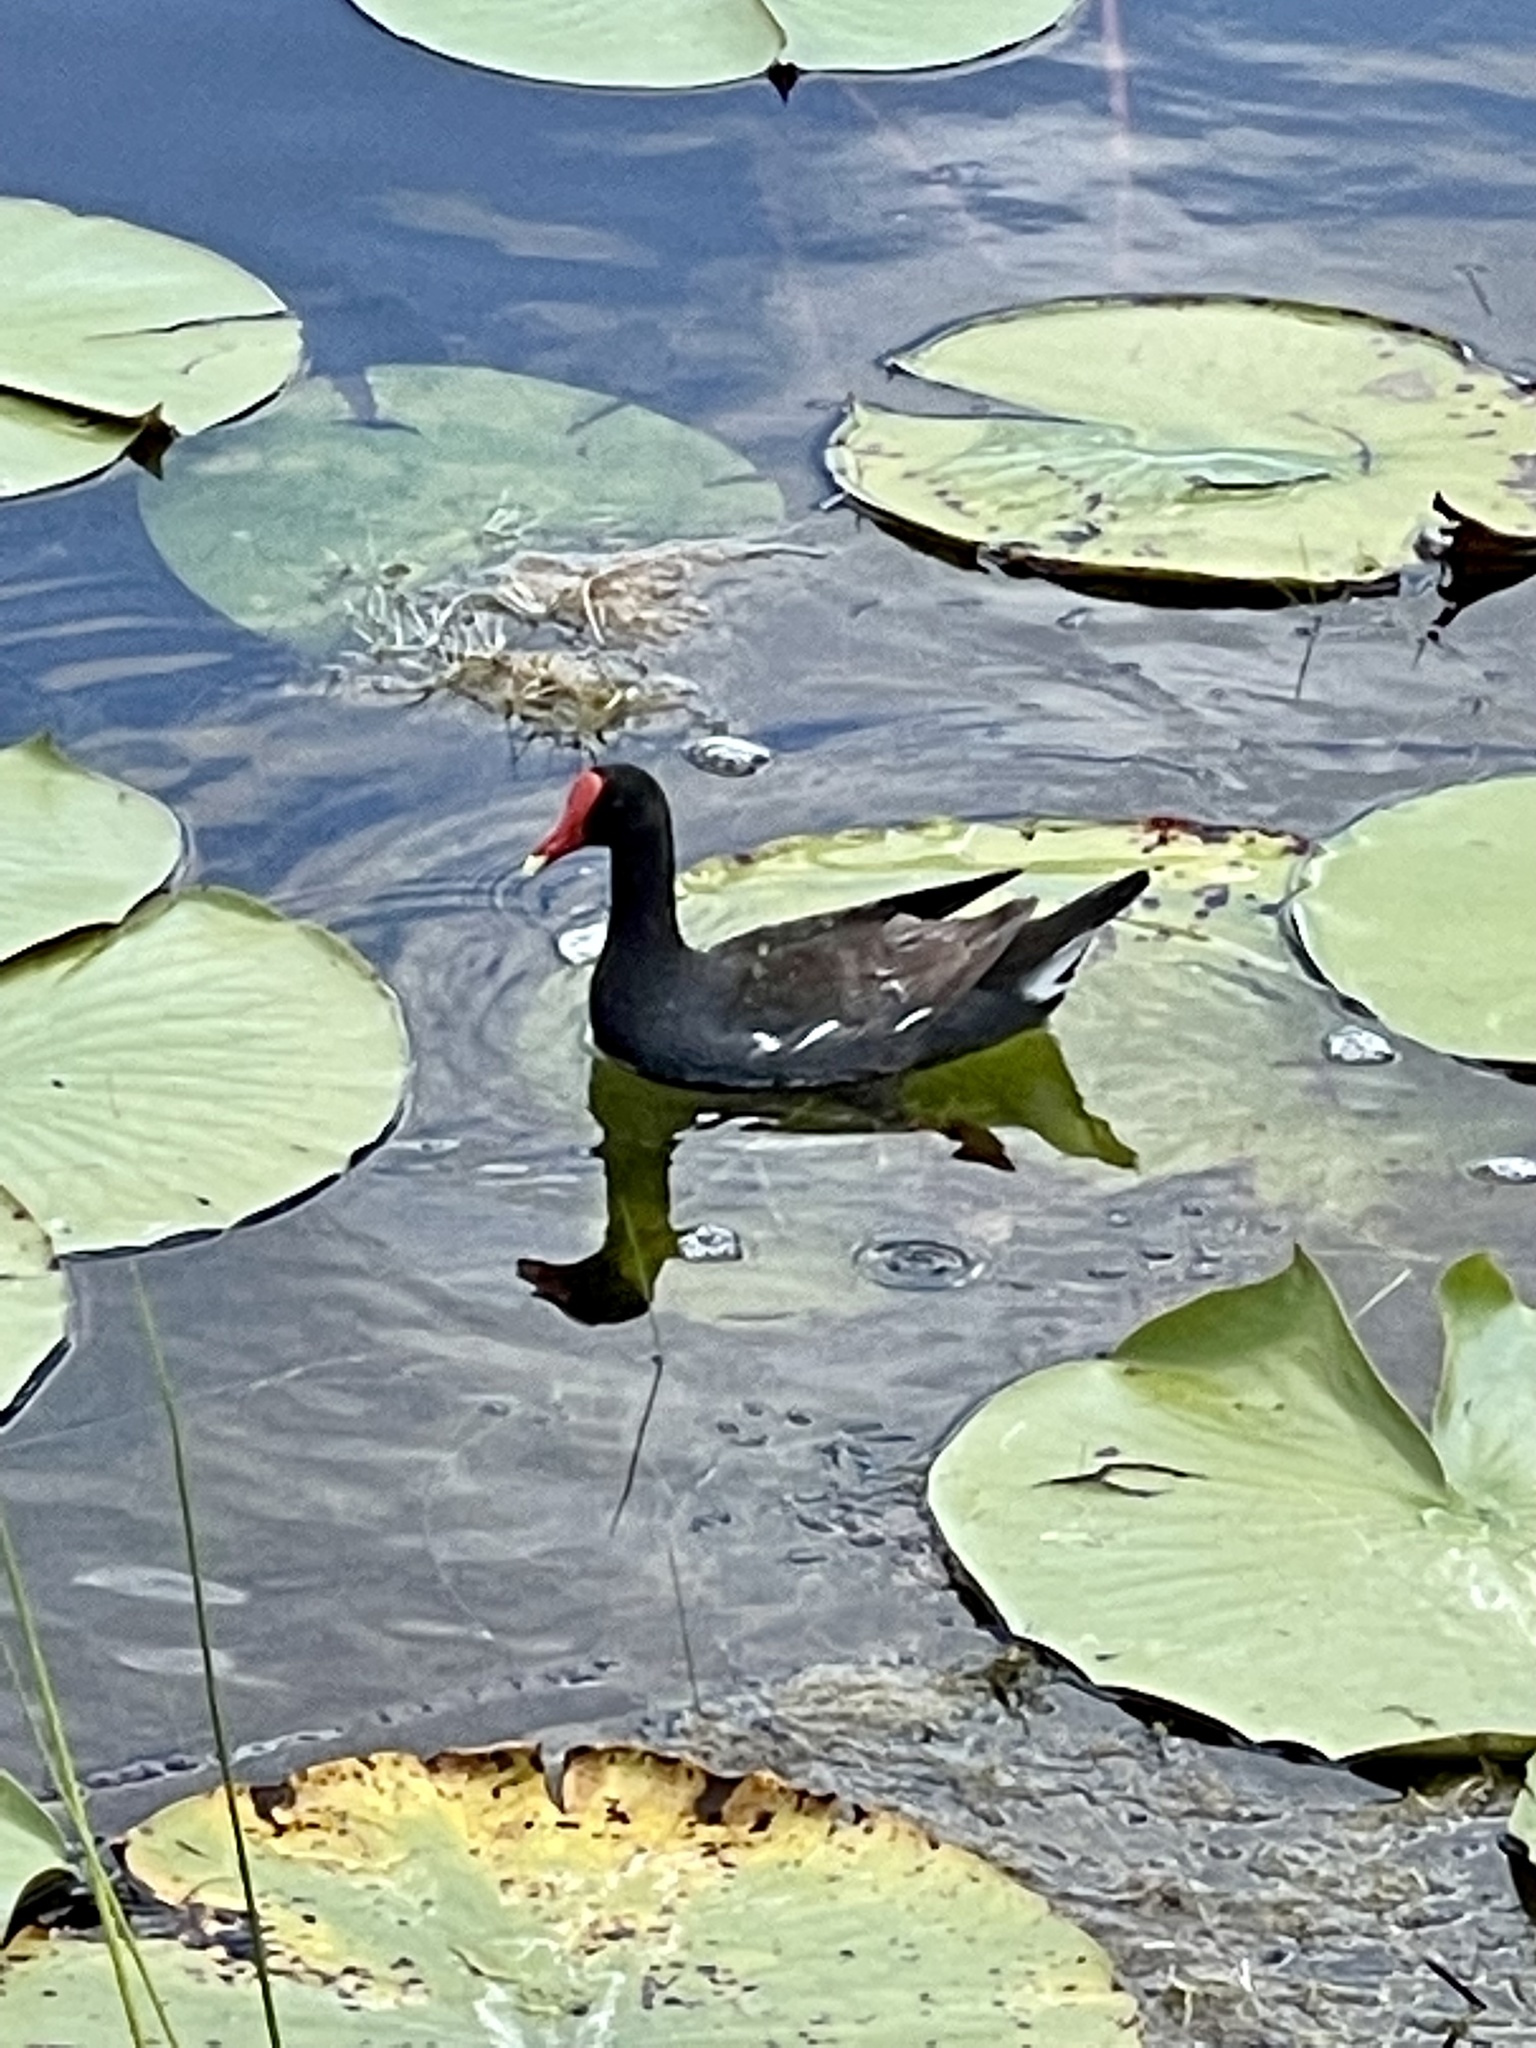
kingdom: Animalia
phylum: Chordata
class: Aves
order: Gruiformes
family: Rallidae
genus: Gallinula
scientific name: Gallinula chloropus
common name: Common moorhen
